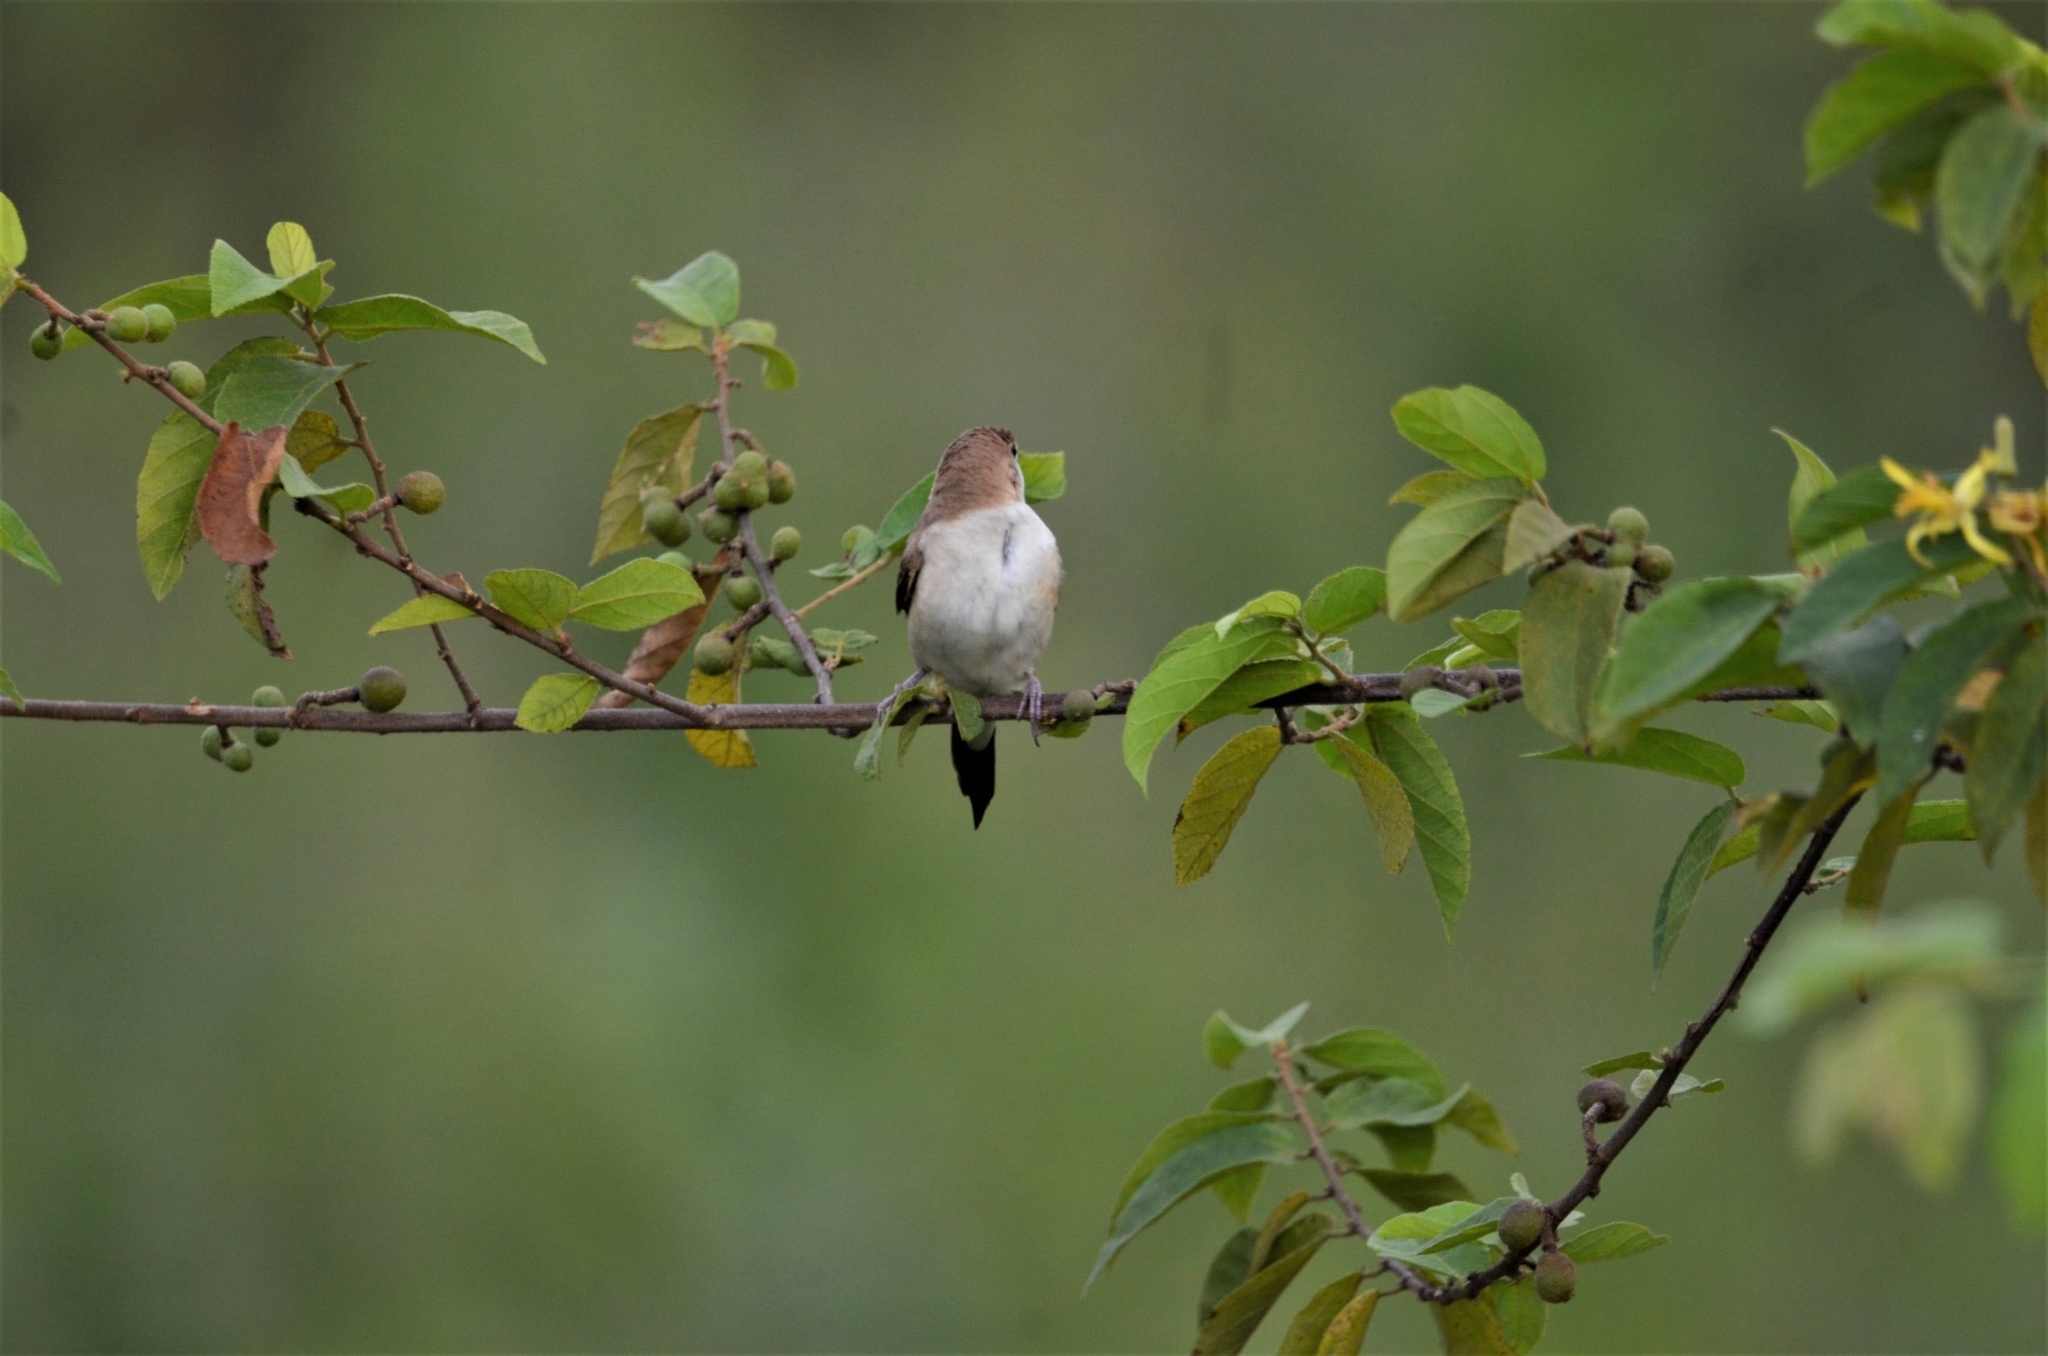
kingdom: Animalia
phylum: Chordata
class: Aves
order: Passeriformes
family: Estrildidae
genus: Euodice
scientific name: Euodice malabarica
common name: Indian silverbill
